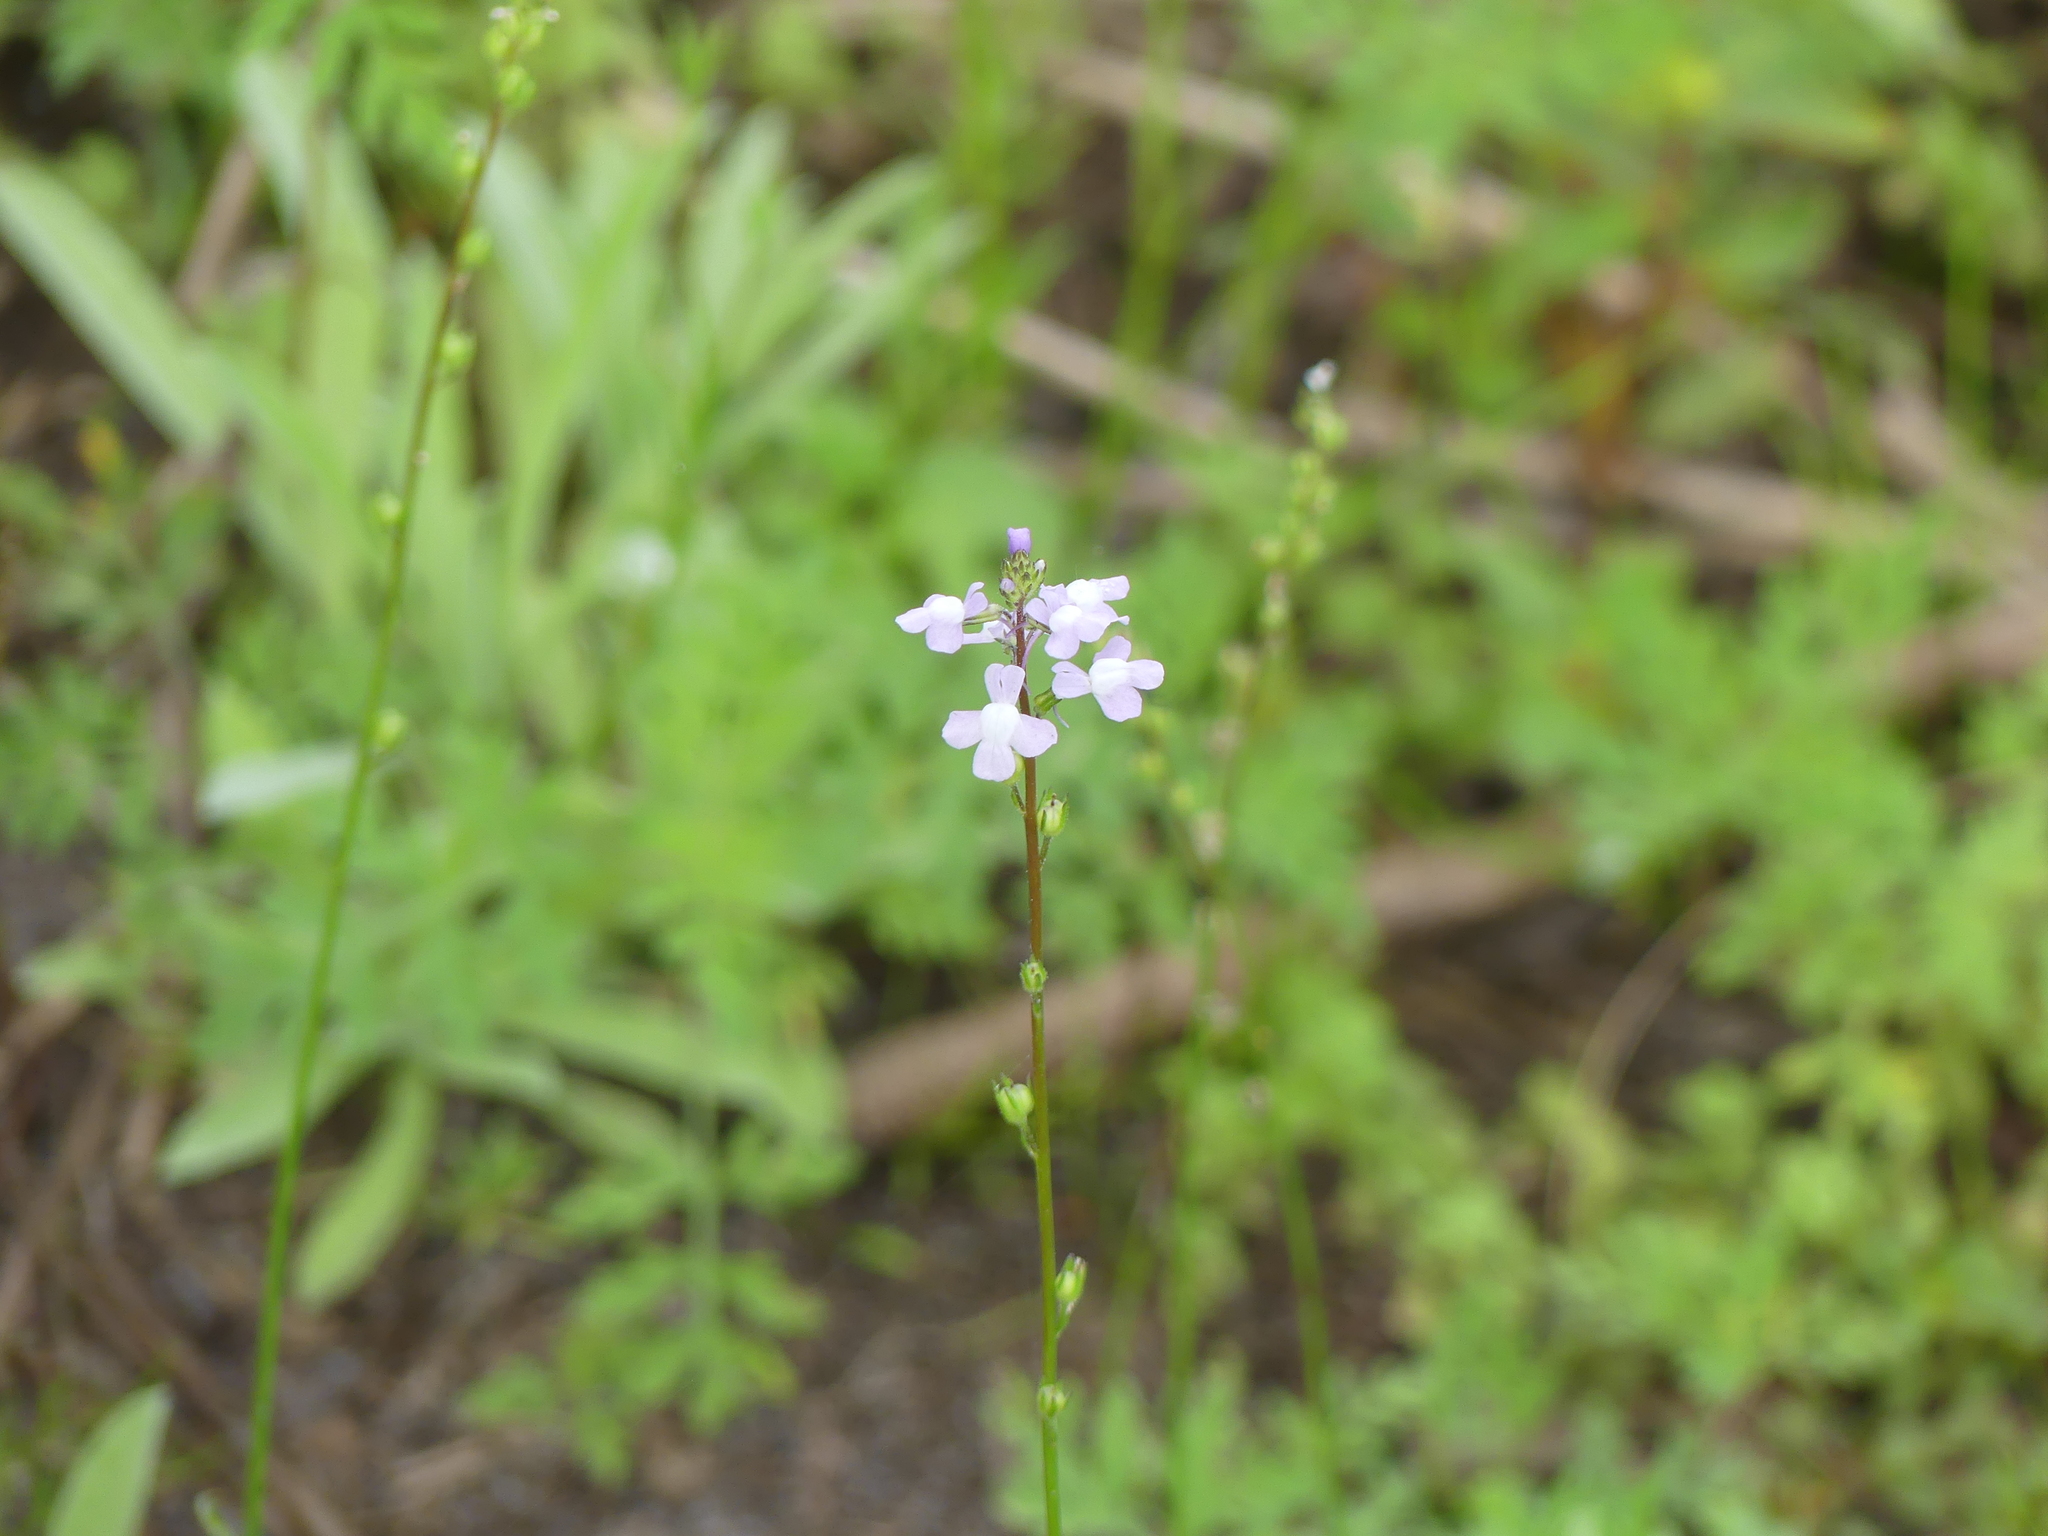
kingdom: Plantae
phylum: Tracheophyta
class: Magnoliopsida
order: Lamiales
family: Plantaginaceae
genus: Nuttallanthus
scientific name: Nuttallanthus canadensis
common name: Blue toadflax
